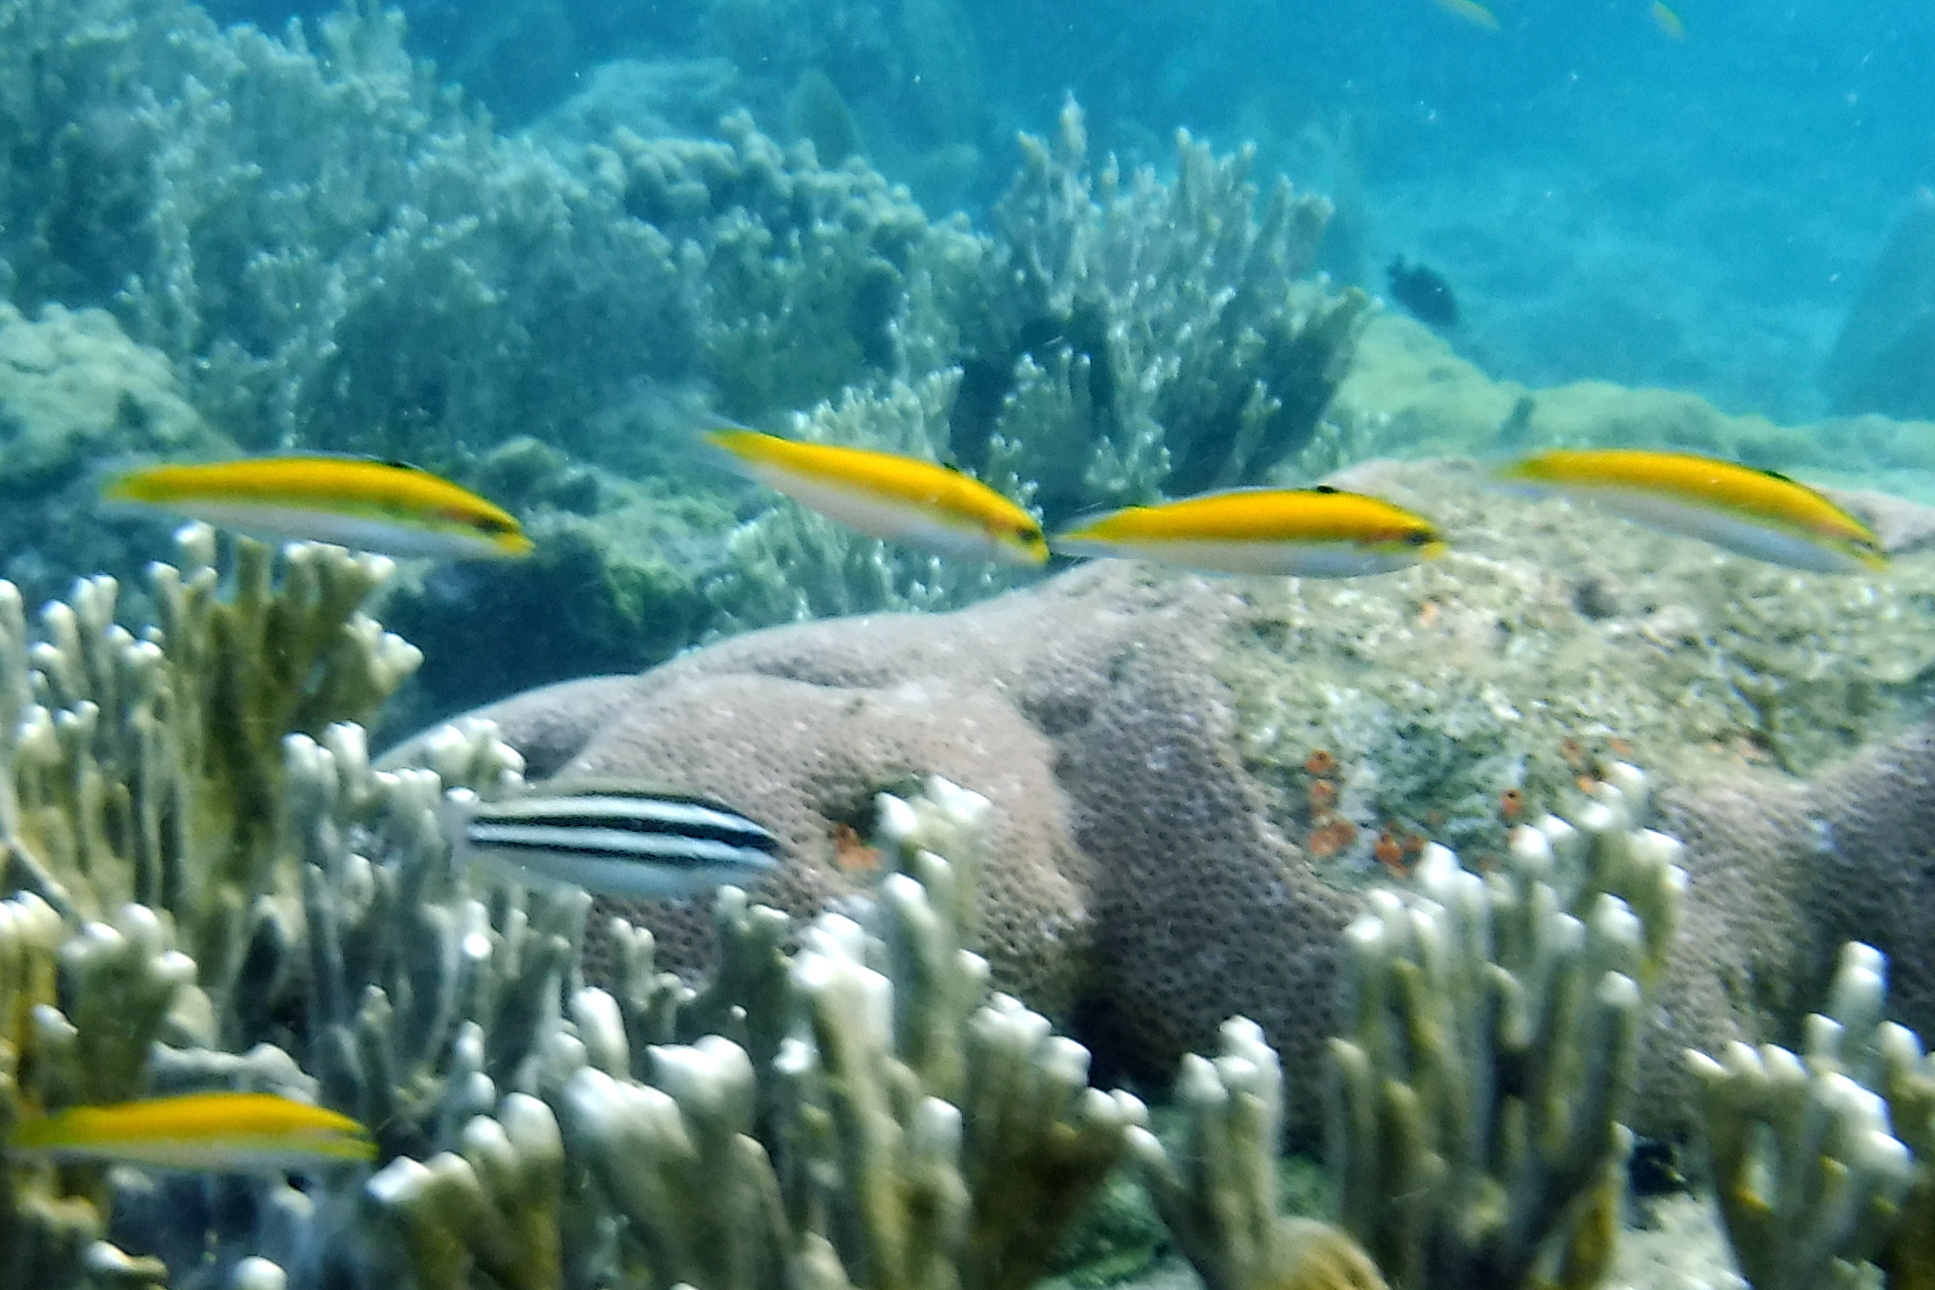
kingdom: Animalia
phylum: Chordata
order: Perciformes
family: Labridae
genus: Thalassoma
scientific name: Thalassoma bifasciatum
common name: Bluehead wrasse
